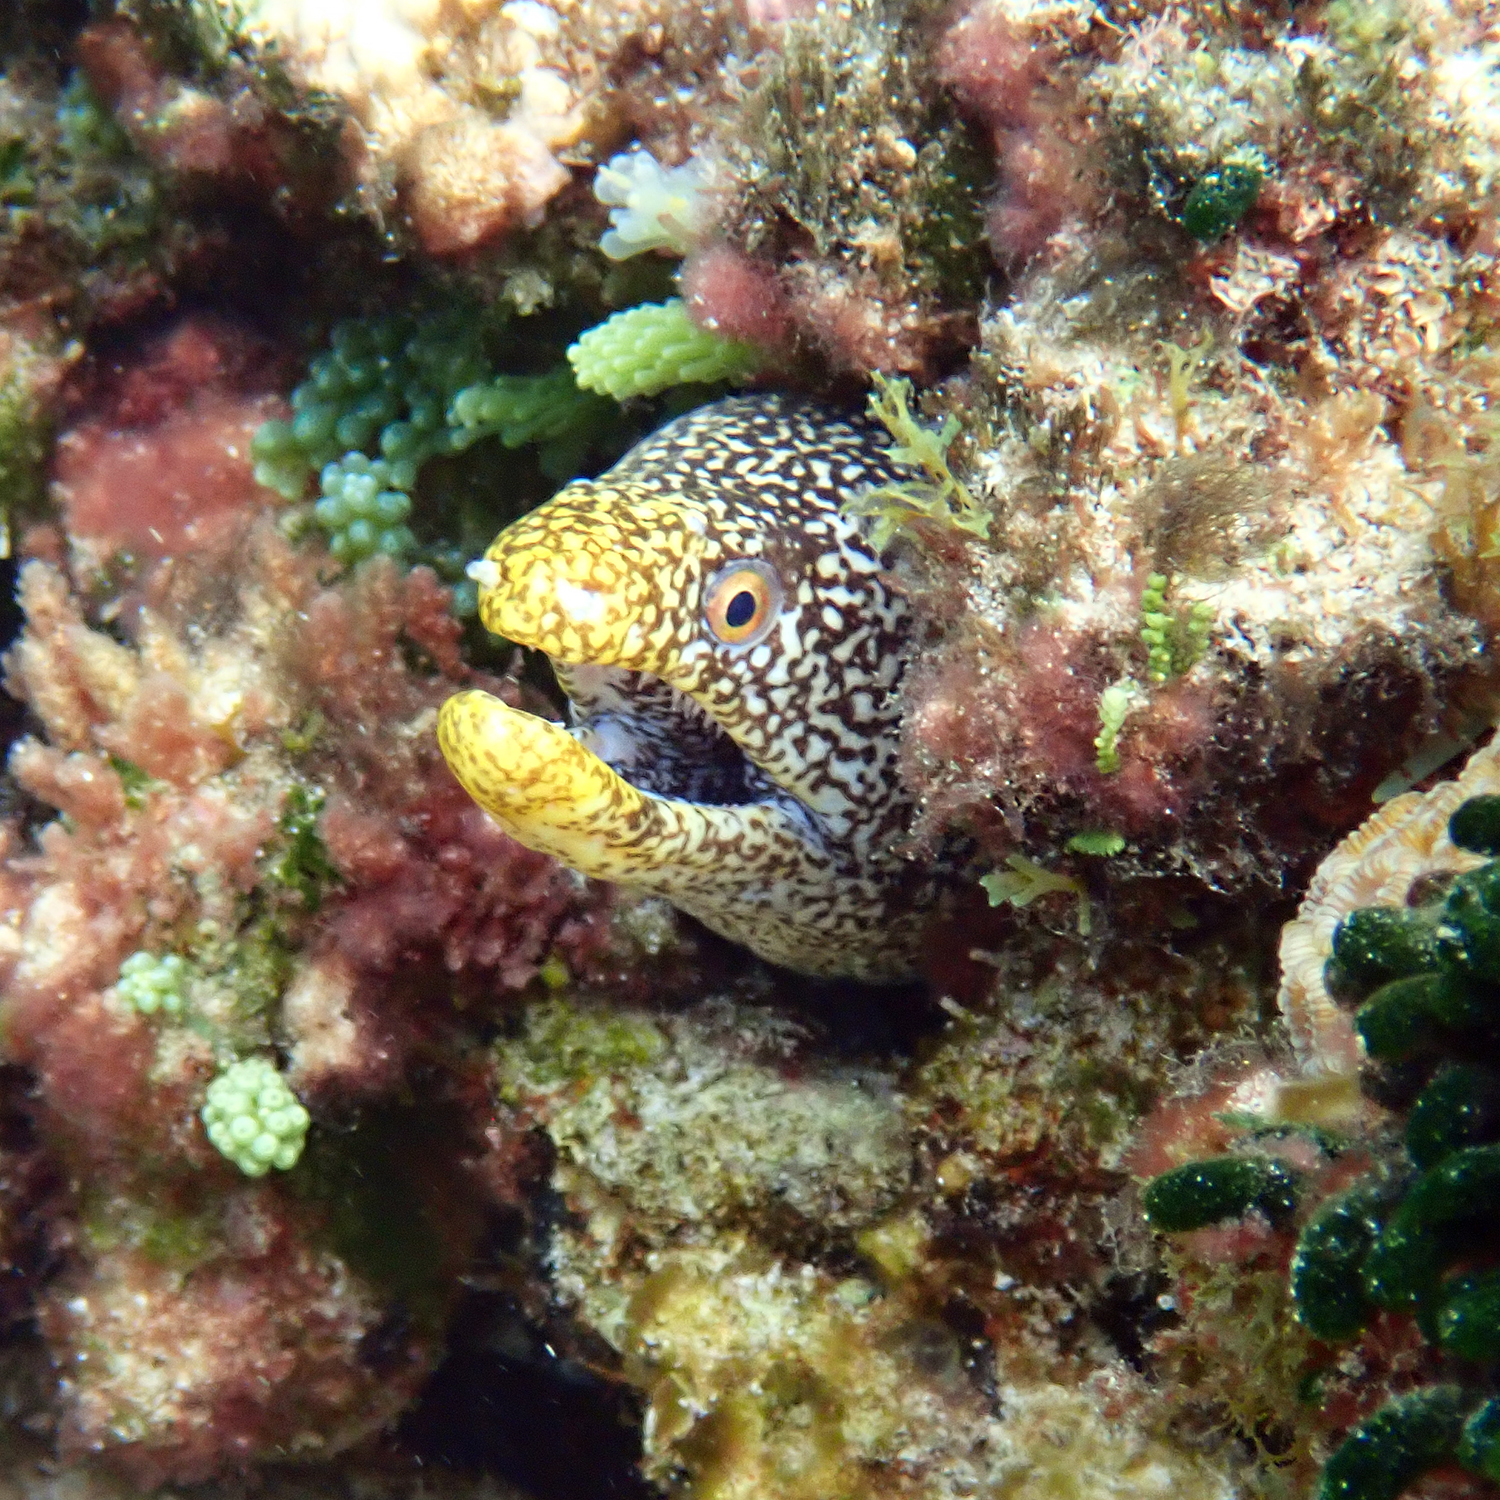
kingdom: Animalia
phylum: Chordata
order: Anguilliformes
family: Muraenidae
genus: Gymnothorax
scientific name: Gymnothorax eurostus
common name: Stout moray
